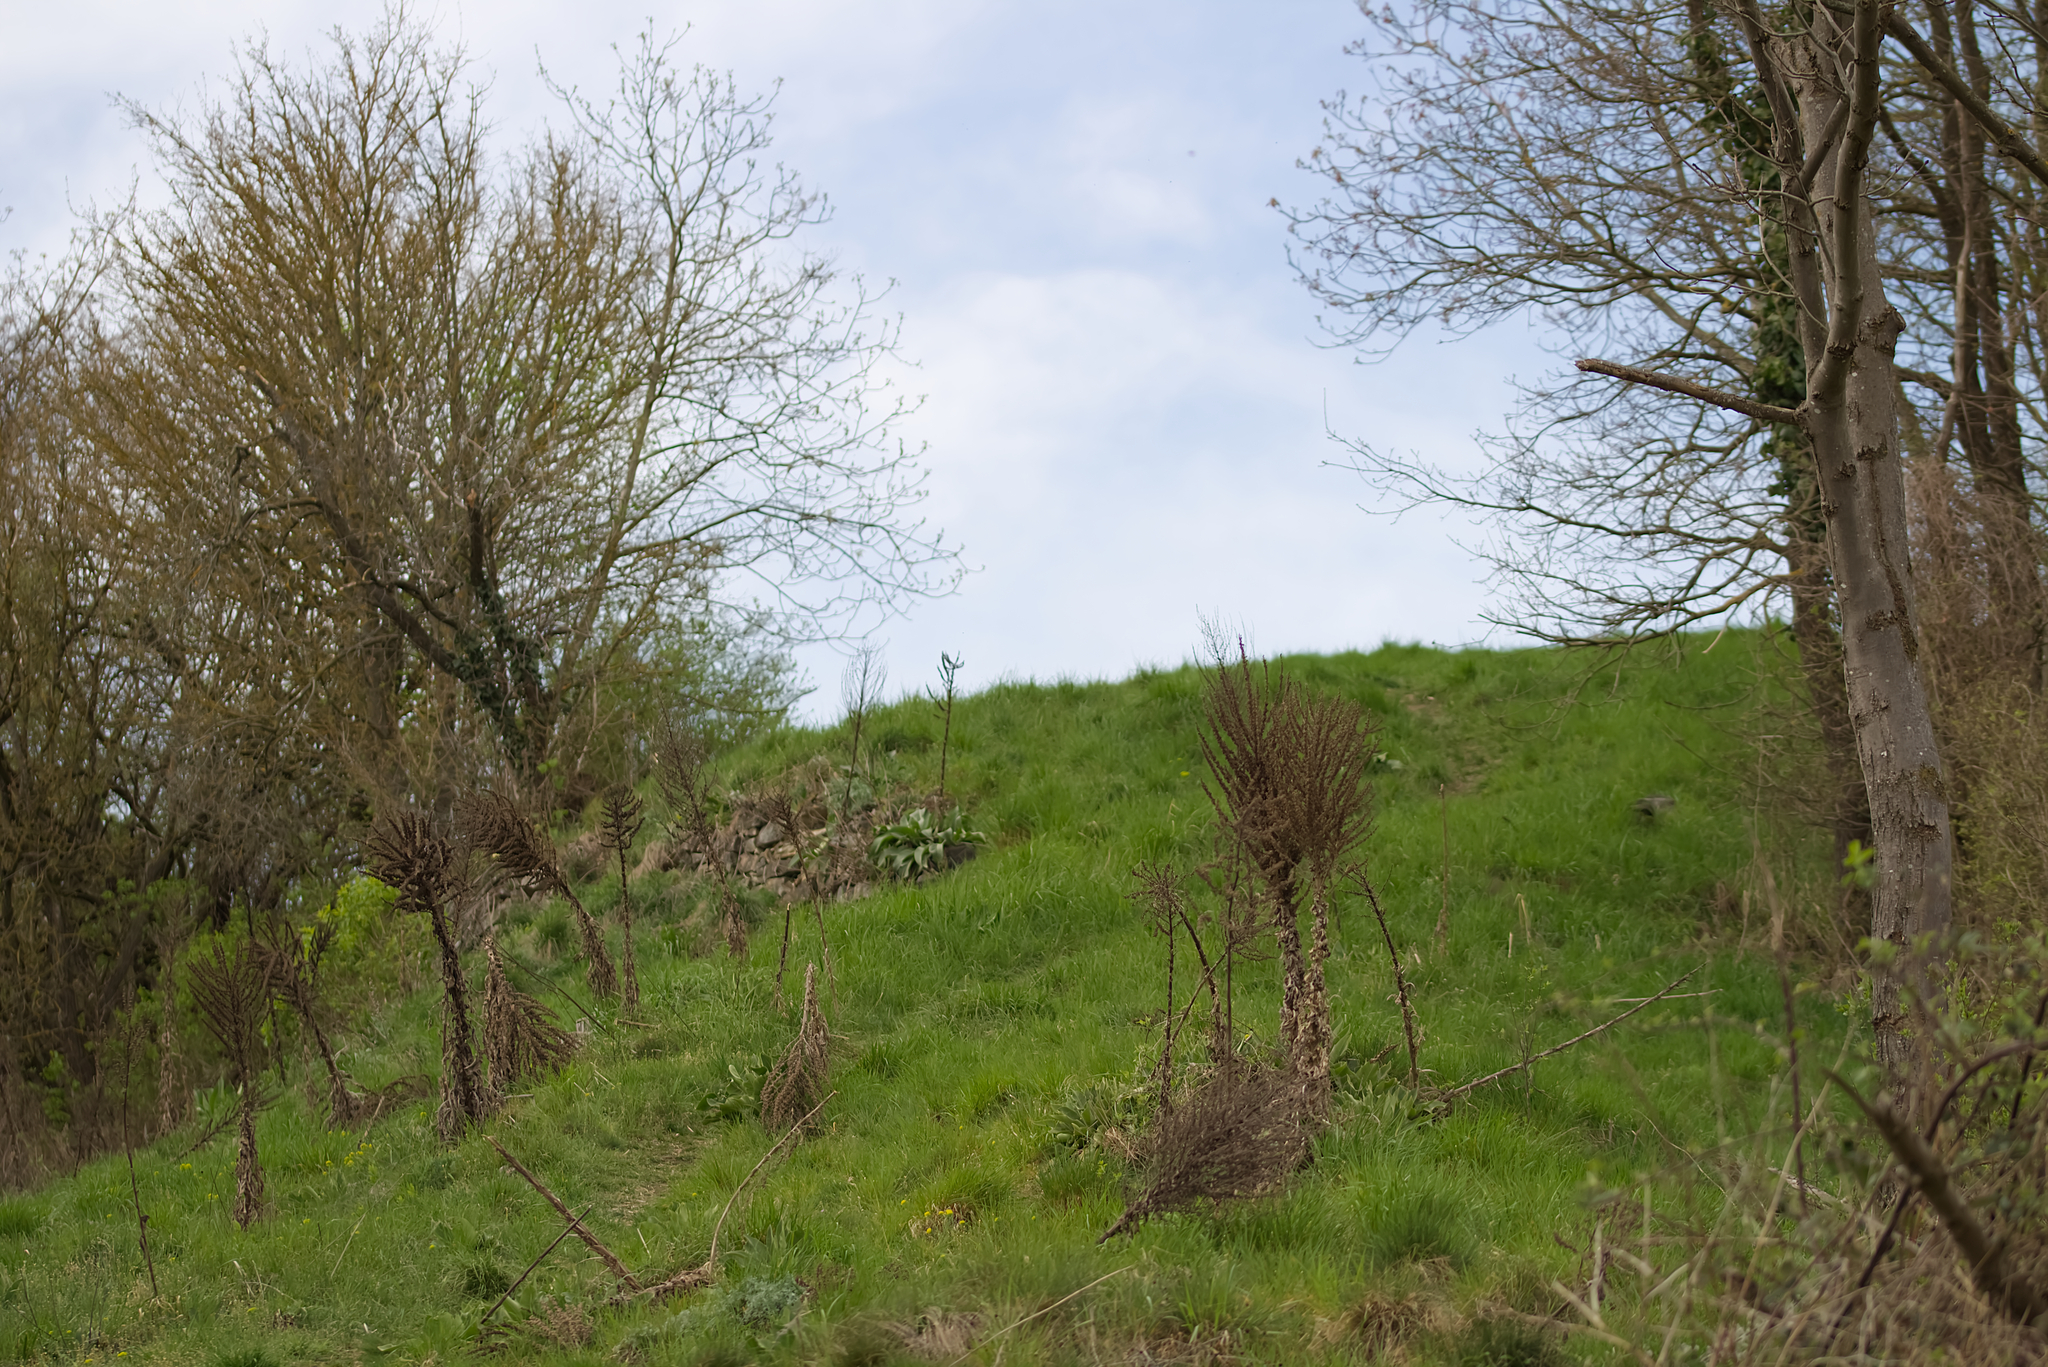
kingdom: Plantae
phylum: Tracheophyta
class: Magnoliopsida
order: Lamiales
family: Scrophulariaceae
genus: Verbascum
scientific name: Verbascum speciosum
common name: Hungarian mullein
